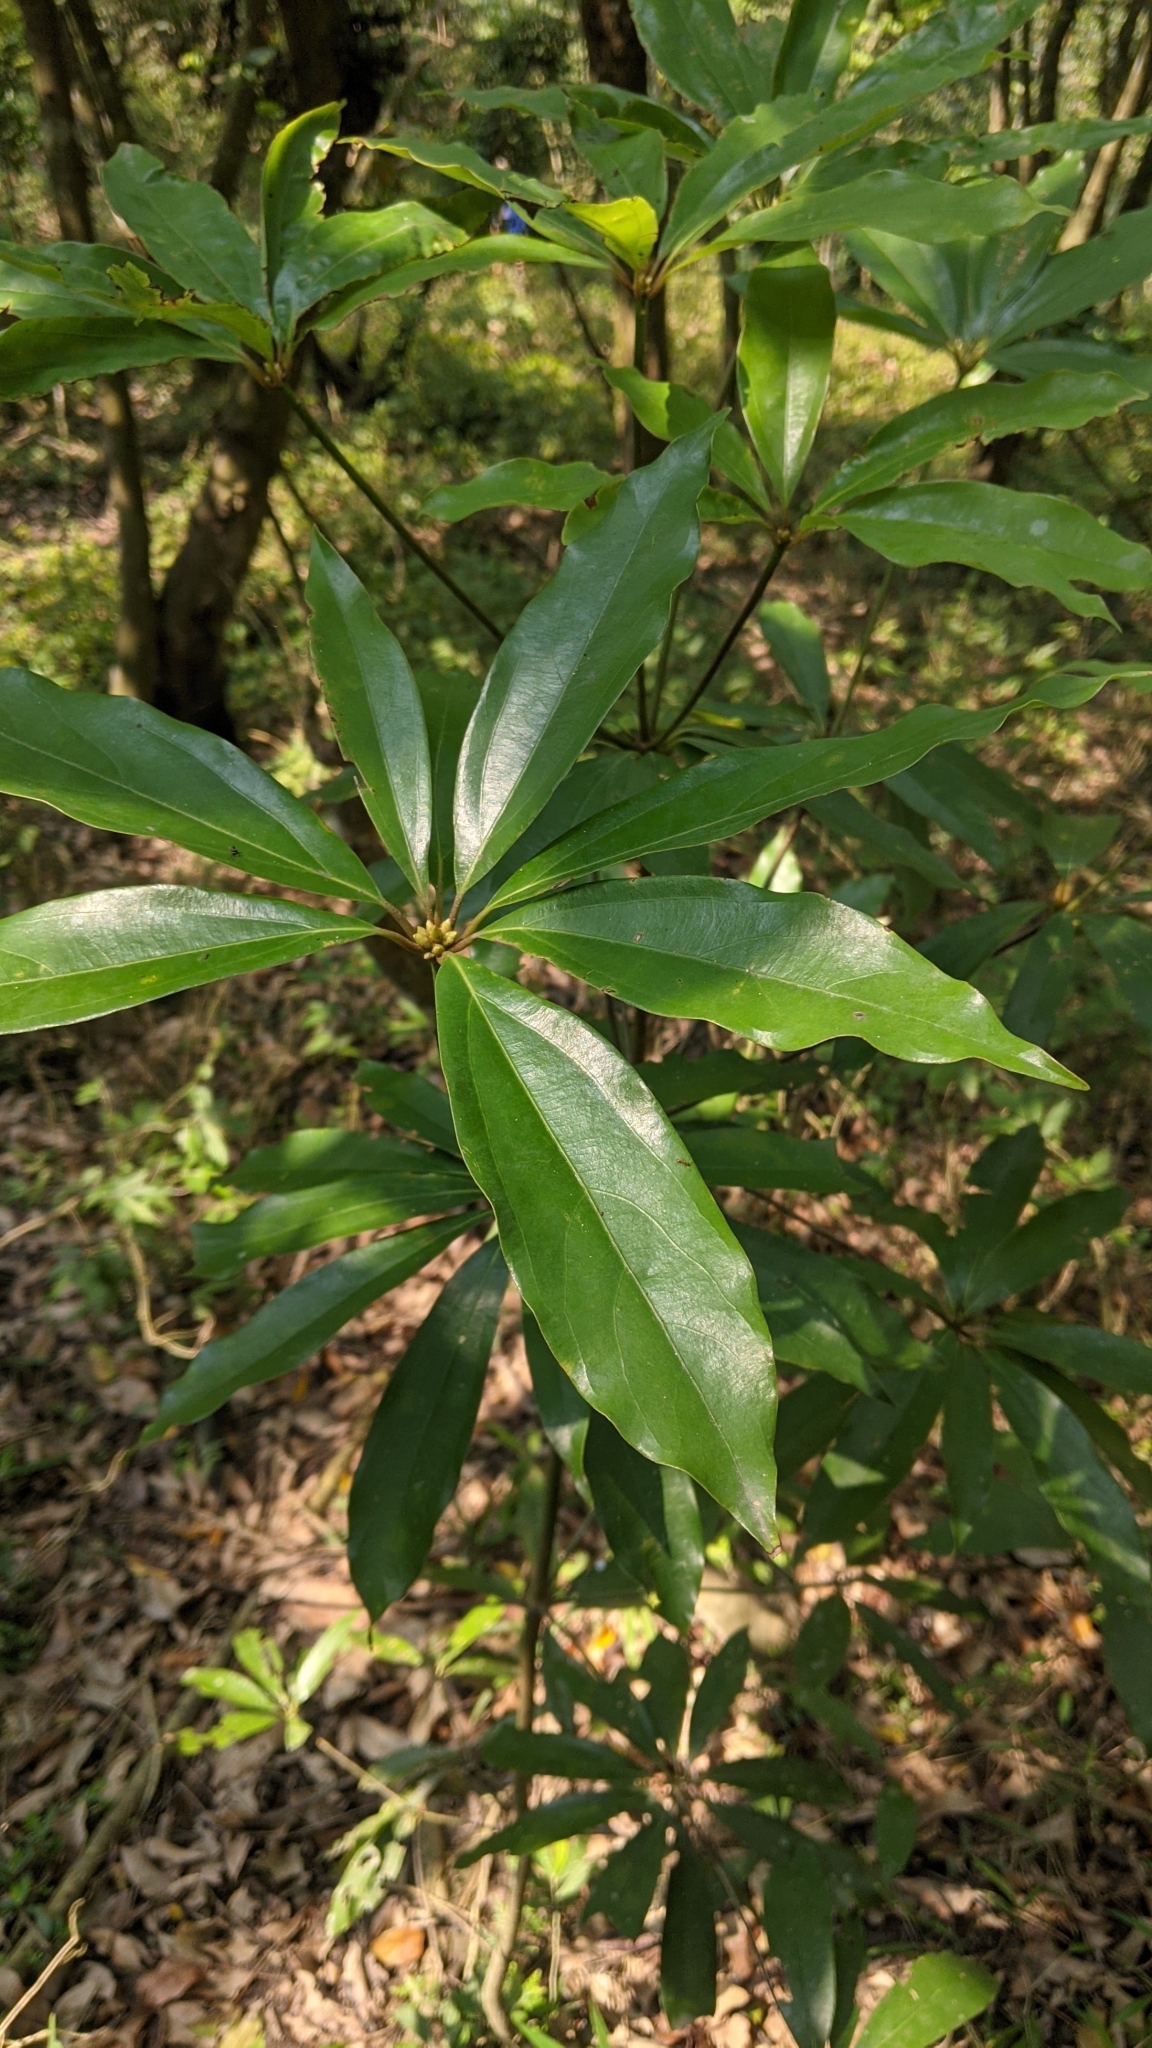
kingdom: Plantae
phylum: Tracheophyta
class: Magnoliopsida
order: Laurales
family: Lauraceae
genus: Neolitsea
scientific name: Neolitsea konishii
